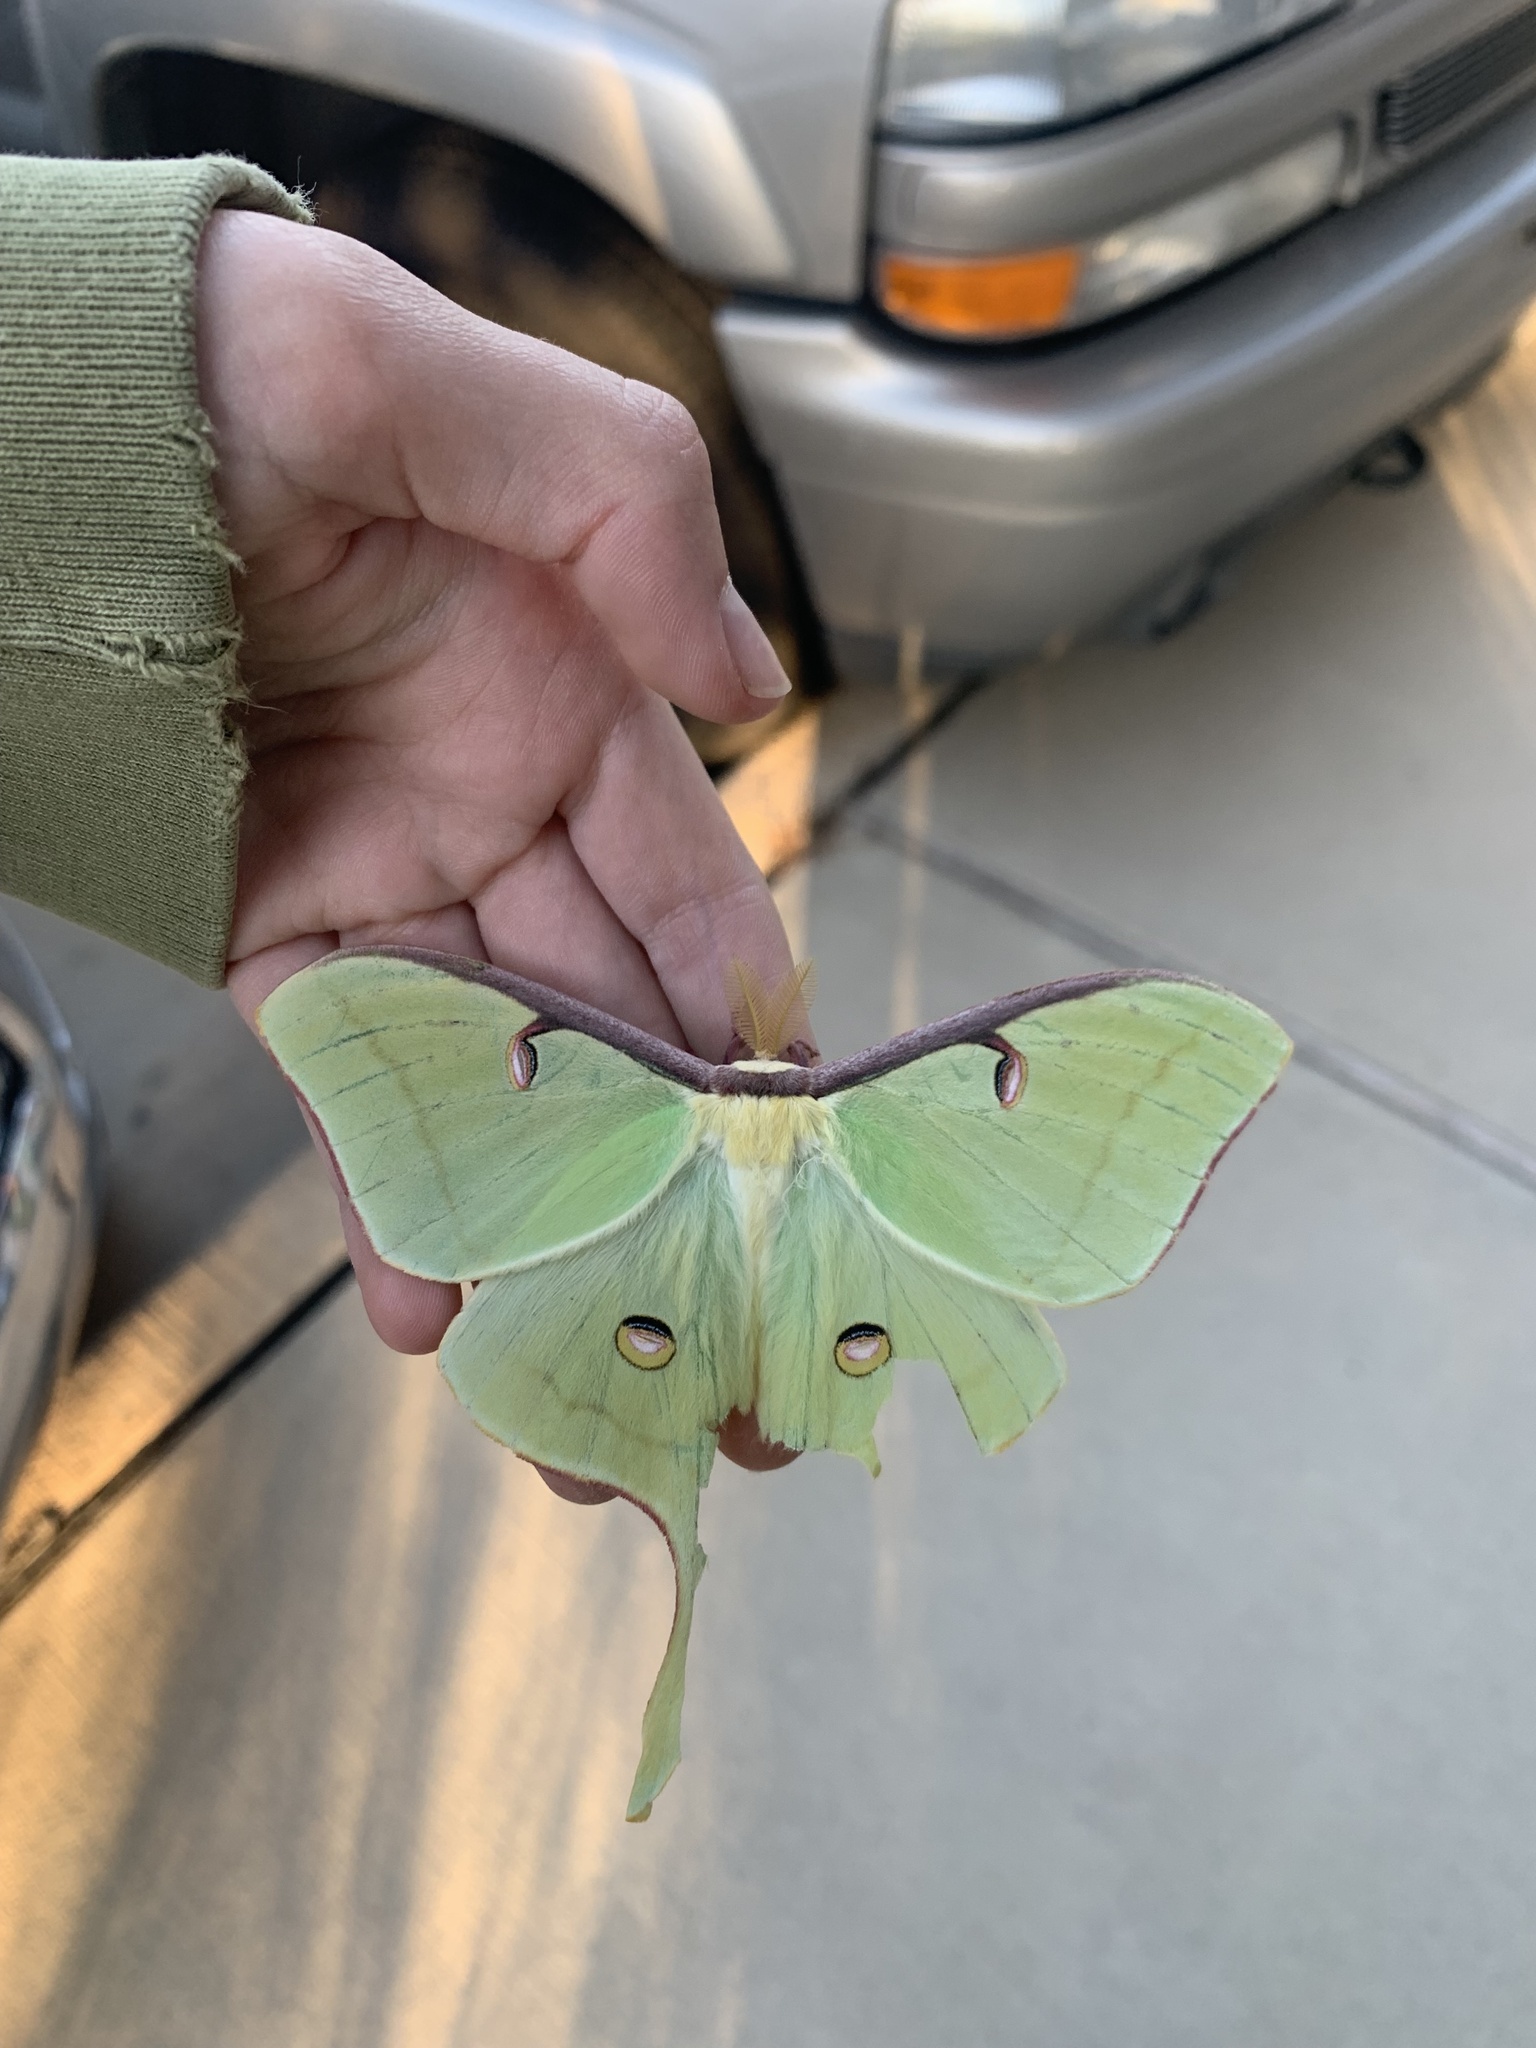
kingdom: Animalia
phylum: Arthropoda
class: Insecta
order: Lepidoptera
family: Saturniidae
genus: Actias
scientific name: Actias luna
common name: Luna moth
